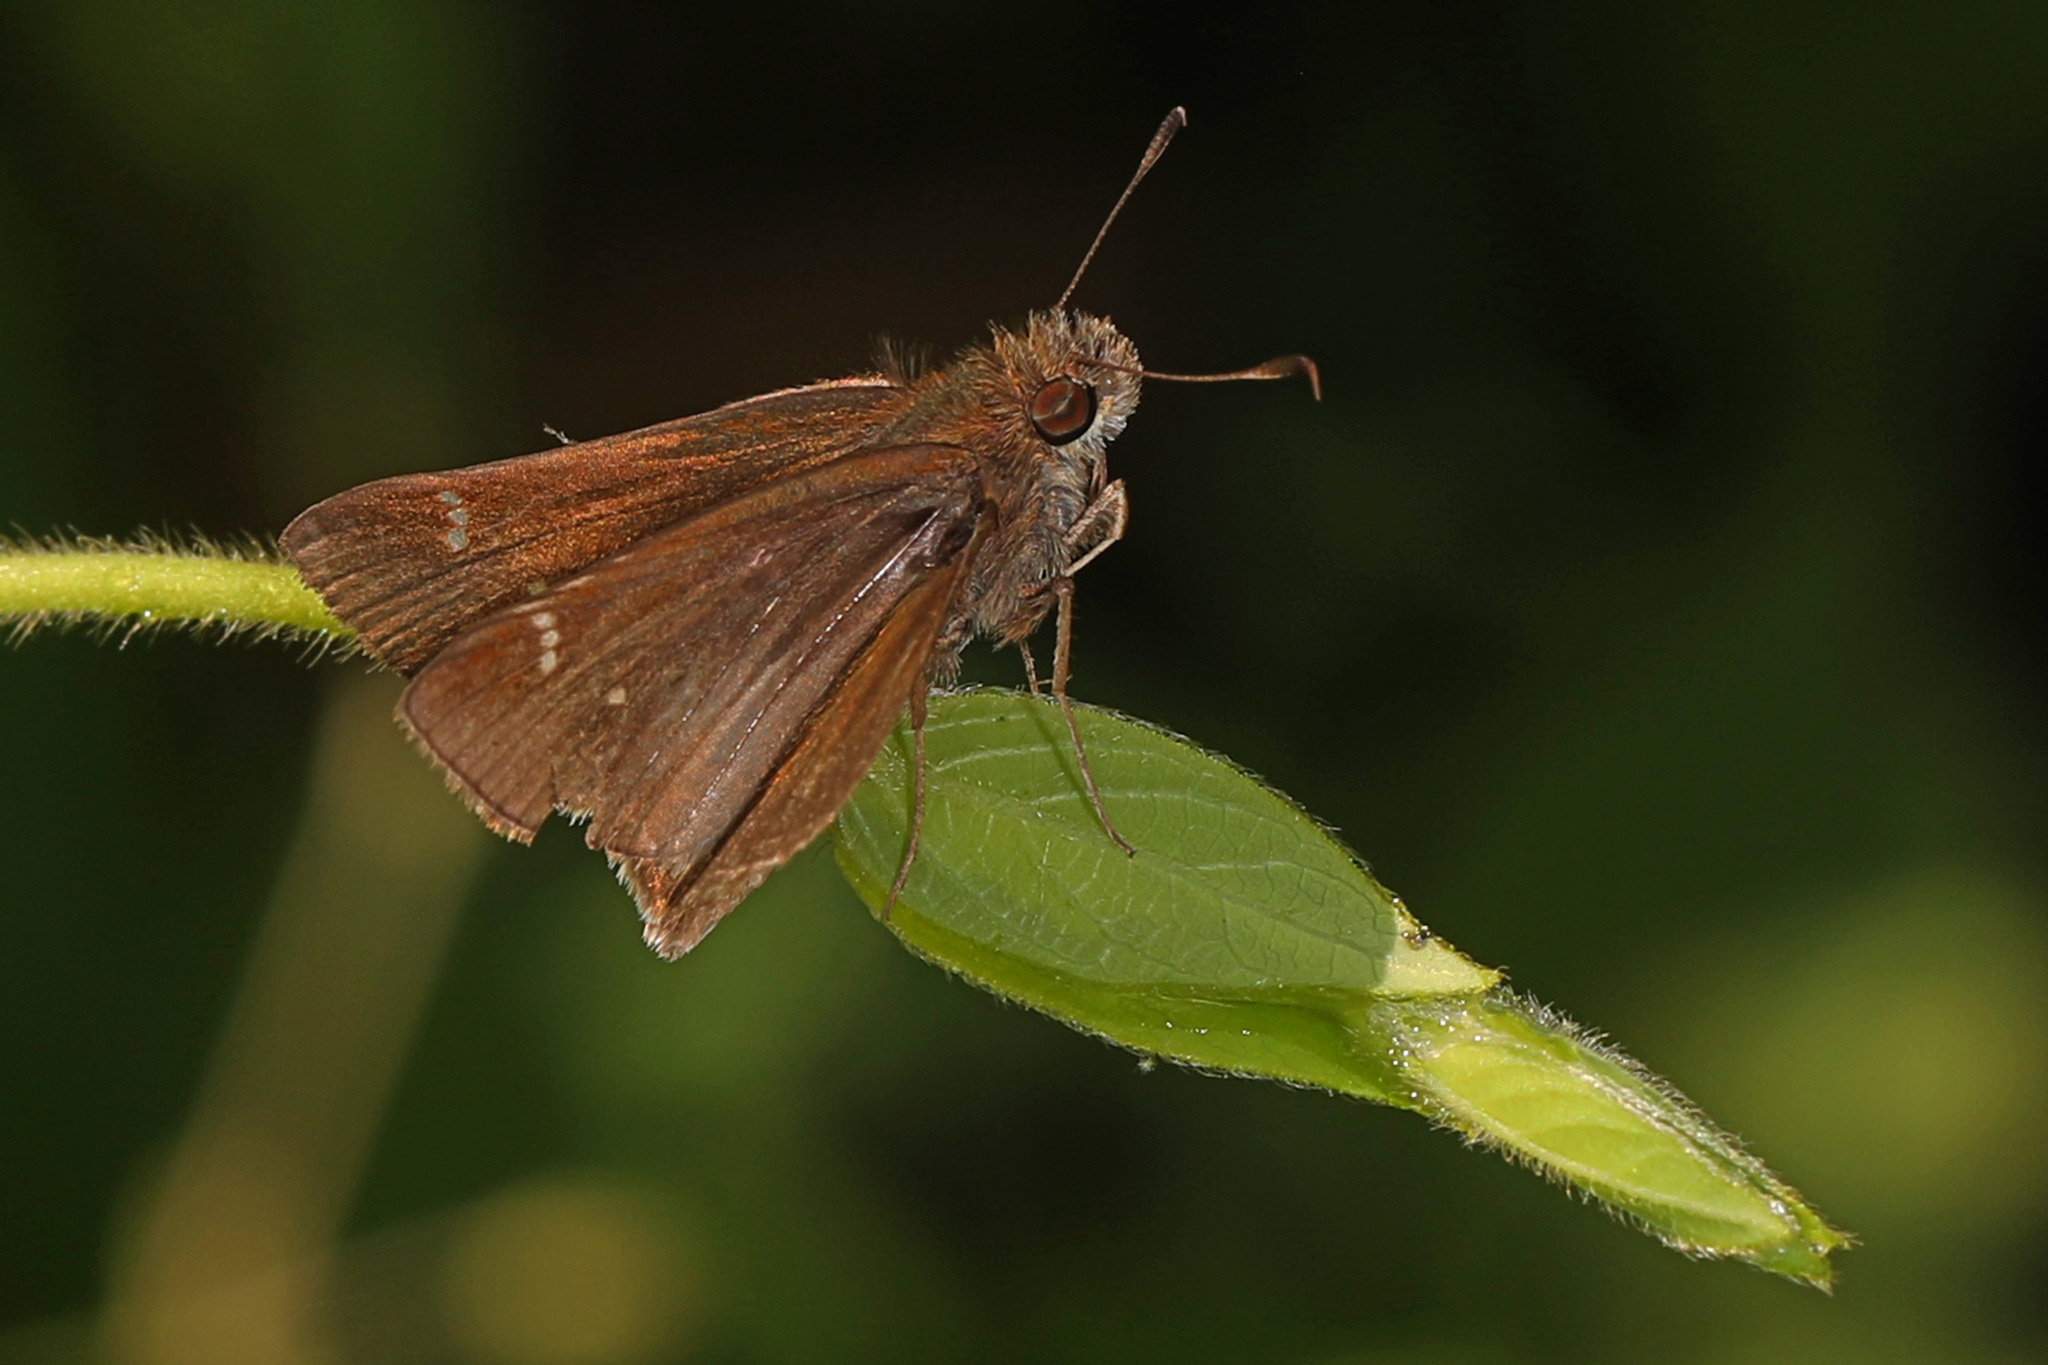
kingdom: Animalia
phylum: Arthropoda
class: Insecta
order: Lepidoptera
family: Hesperiidae
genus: Lerema
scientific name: Lerema accius
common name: Clouded skipper
